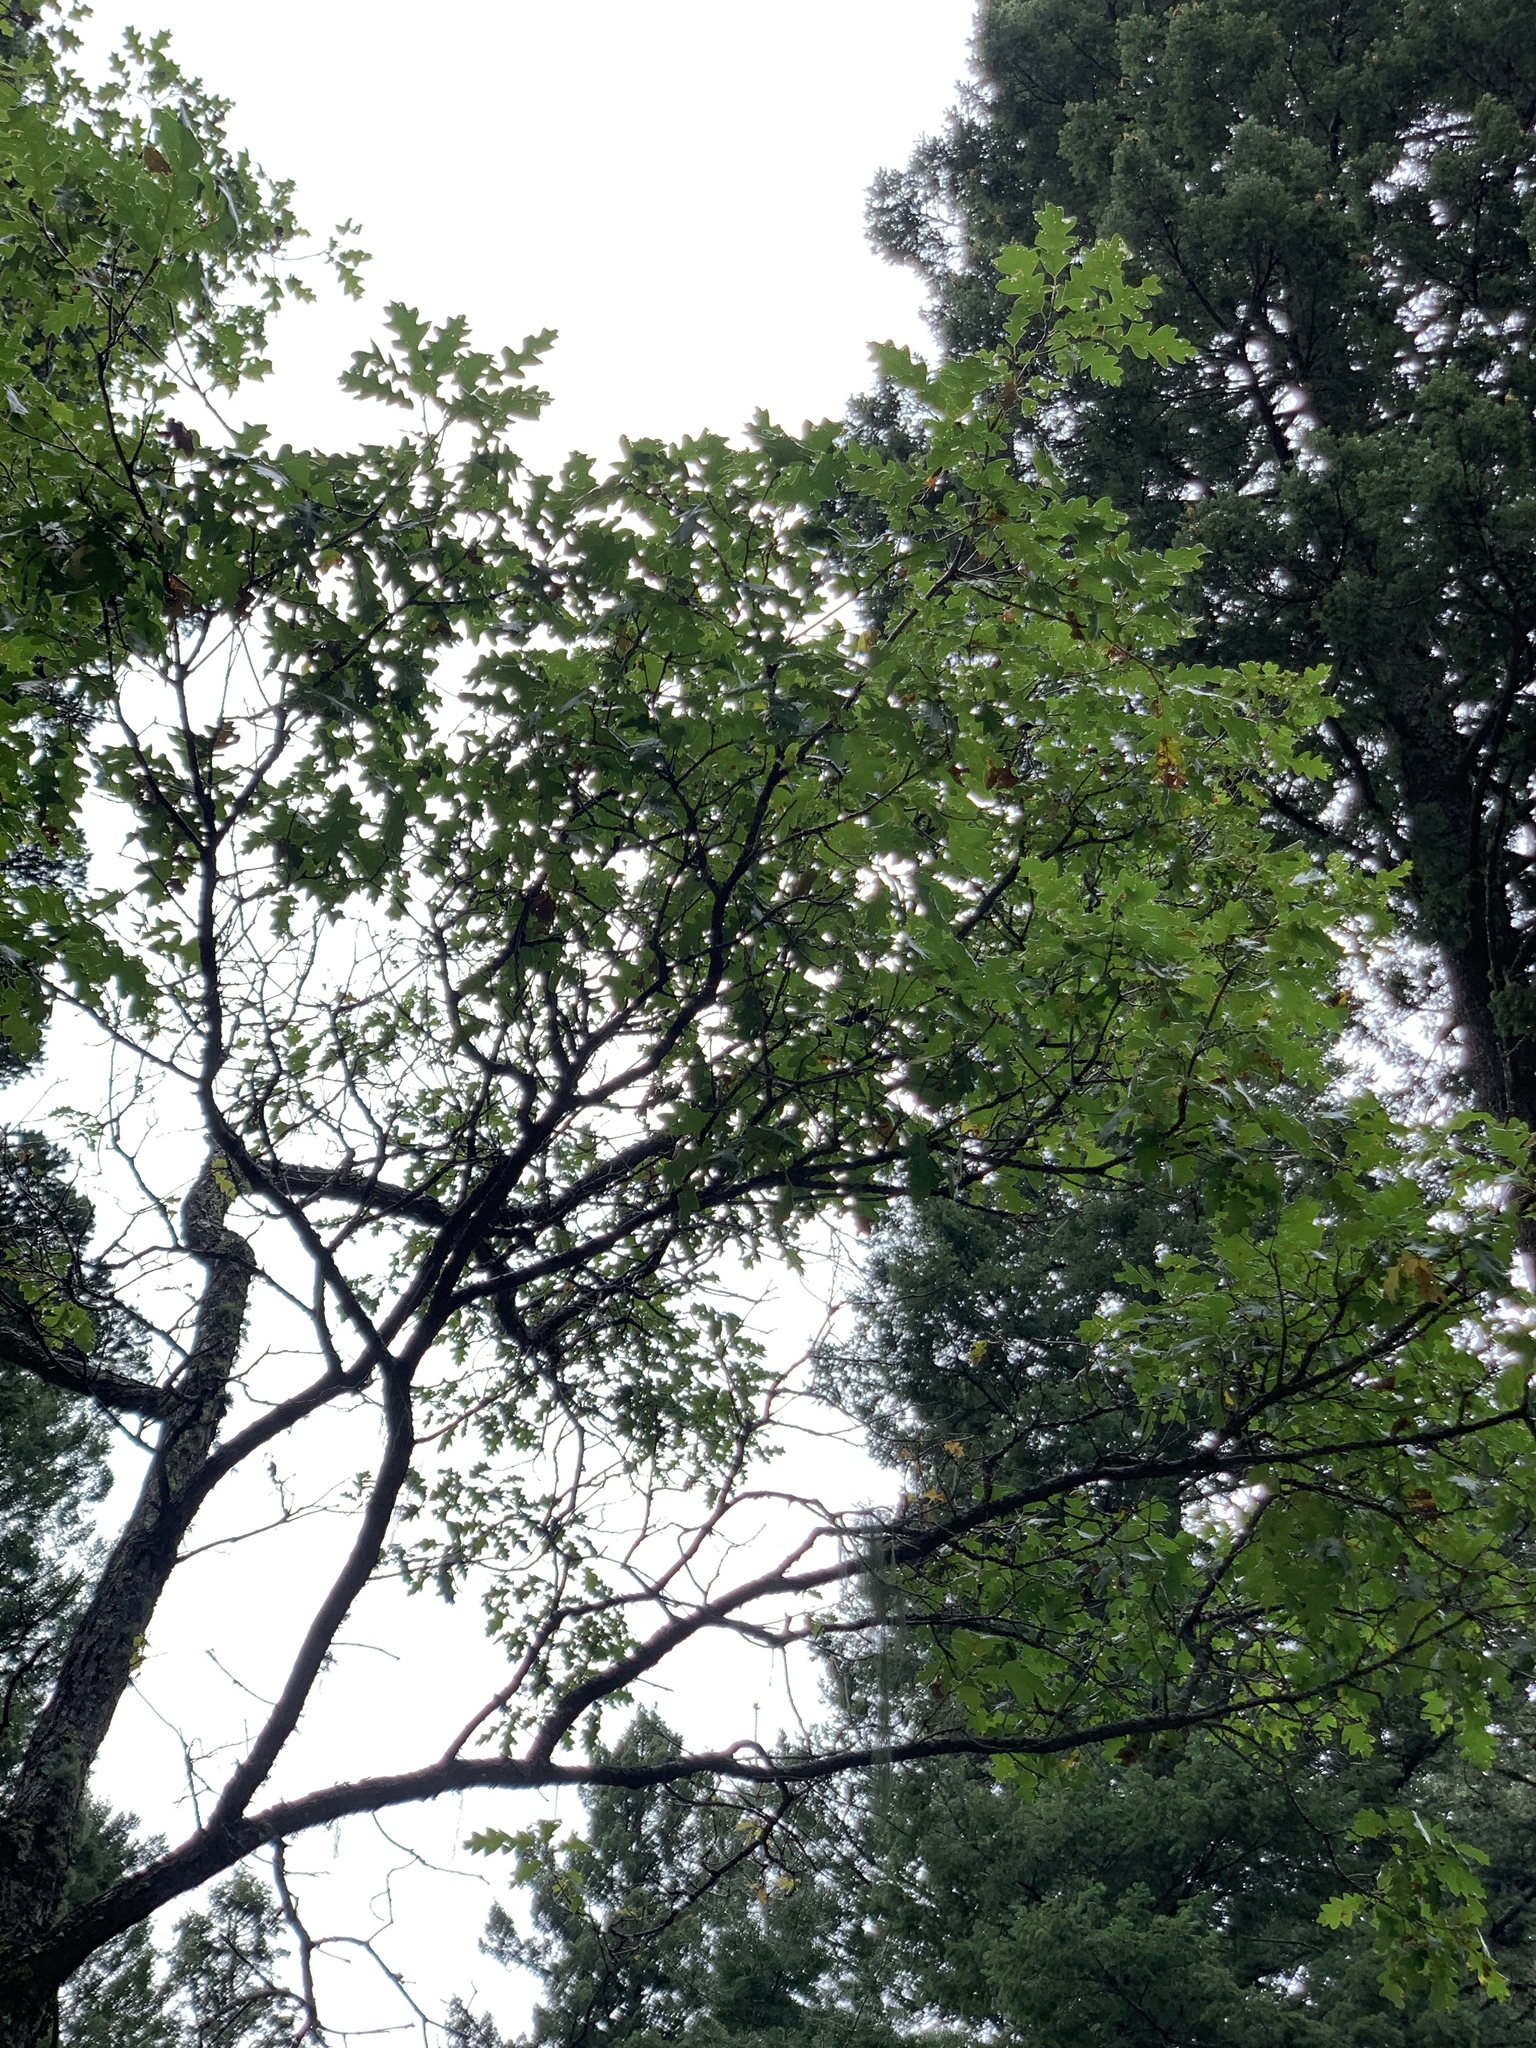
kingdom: Plantae
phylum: Tracheophyta
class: Magnoliopsida
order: Fagales
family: Fagaceae
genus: Quercus
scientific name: Quercus gambelii
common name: Gambel oak
